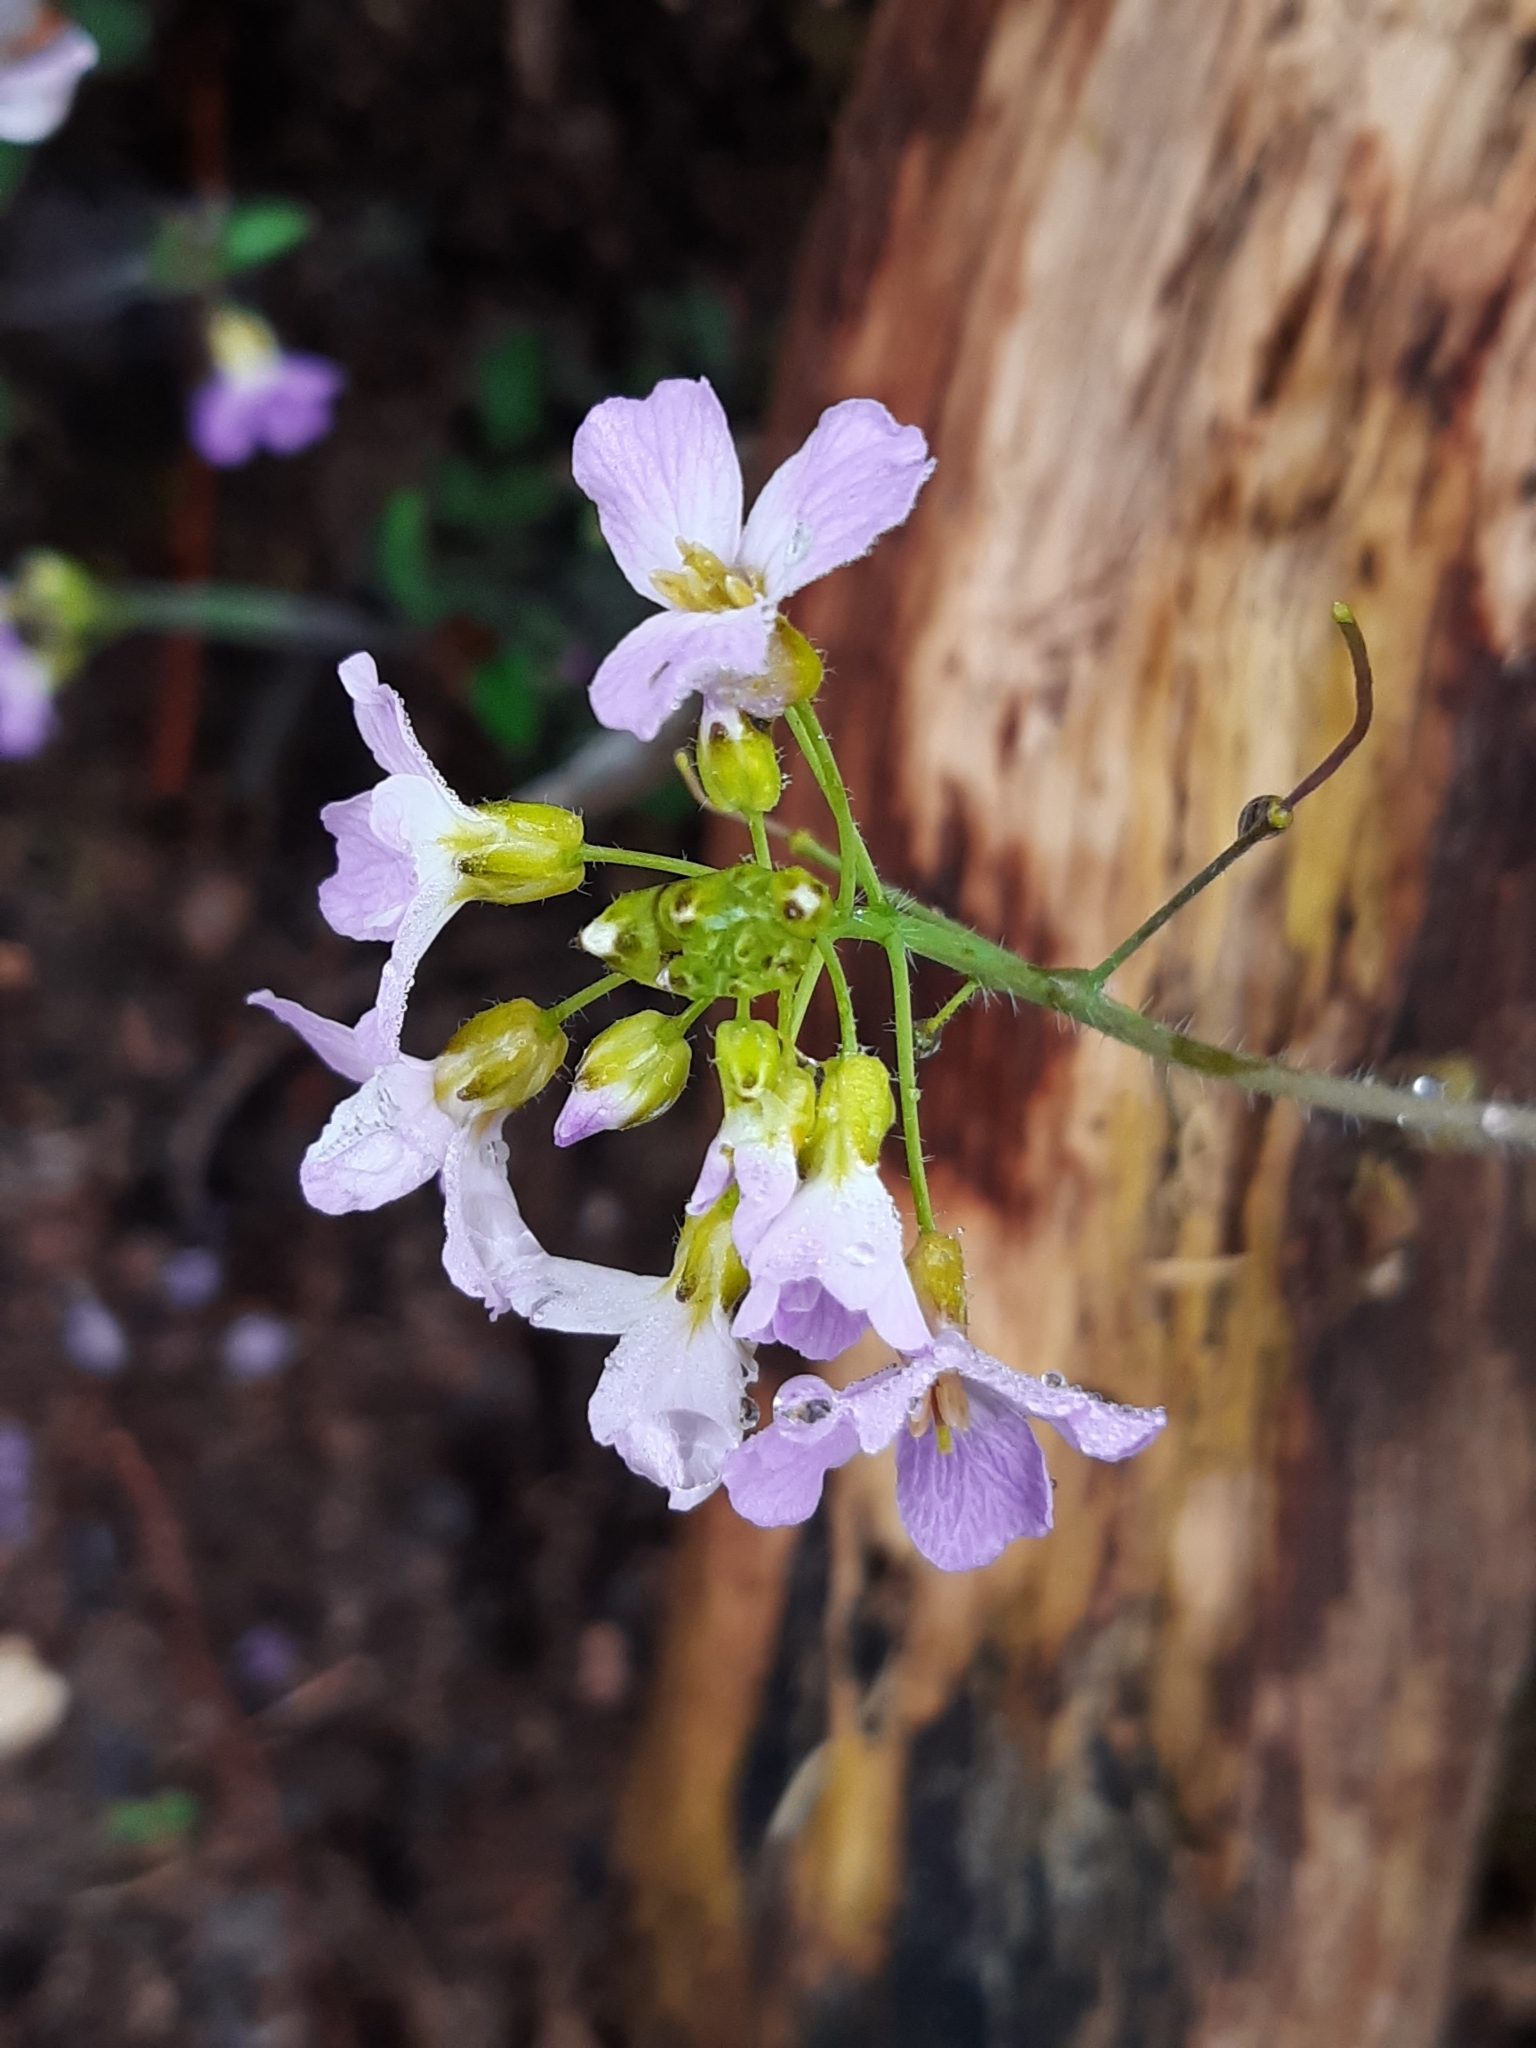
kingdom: Plantae
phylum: Tracheophyta
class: Magnoliopsida
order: Brassicales
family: Brassicaceae
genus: Arabidopsis
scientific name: Arabidopsis arenosa
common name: Sand rock-cress
